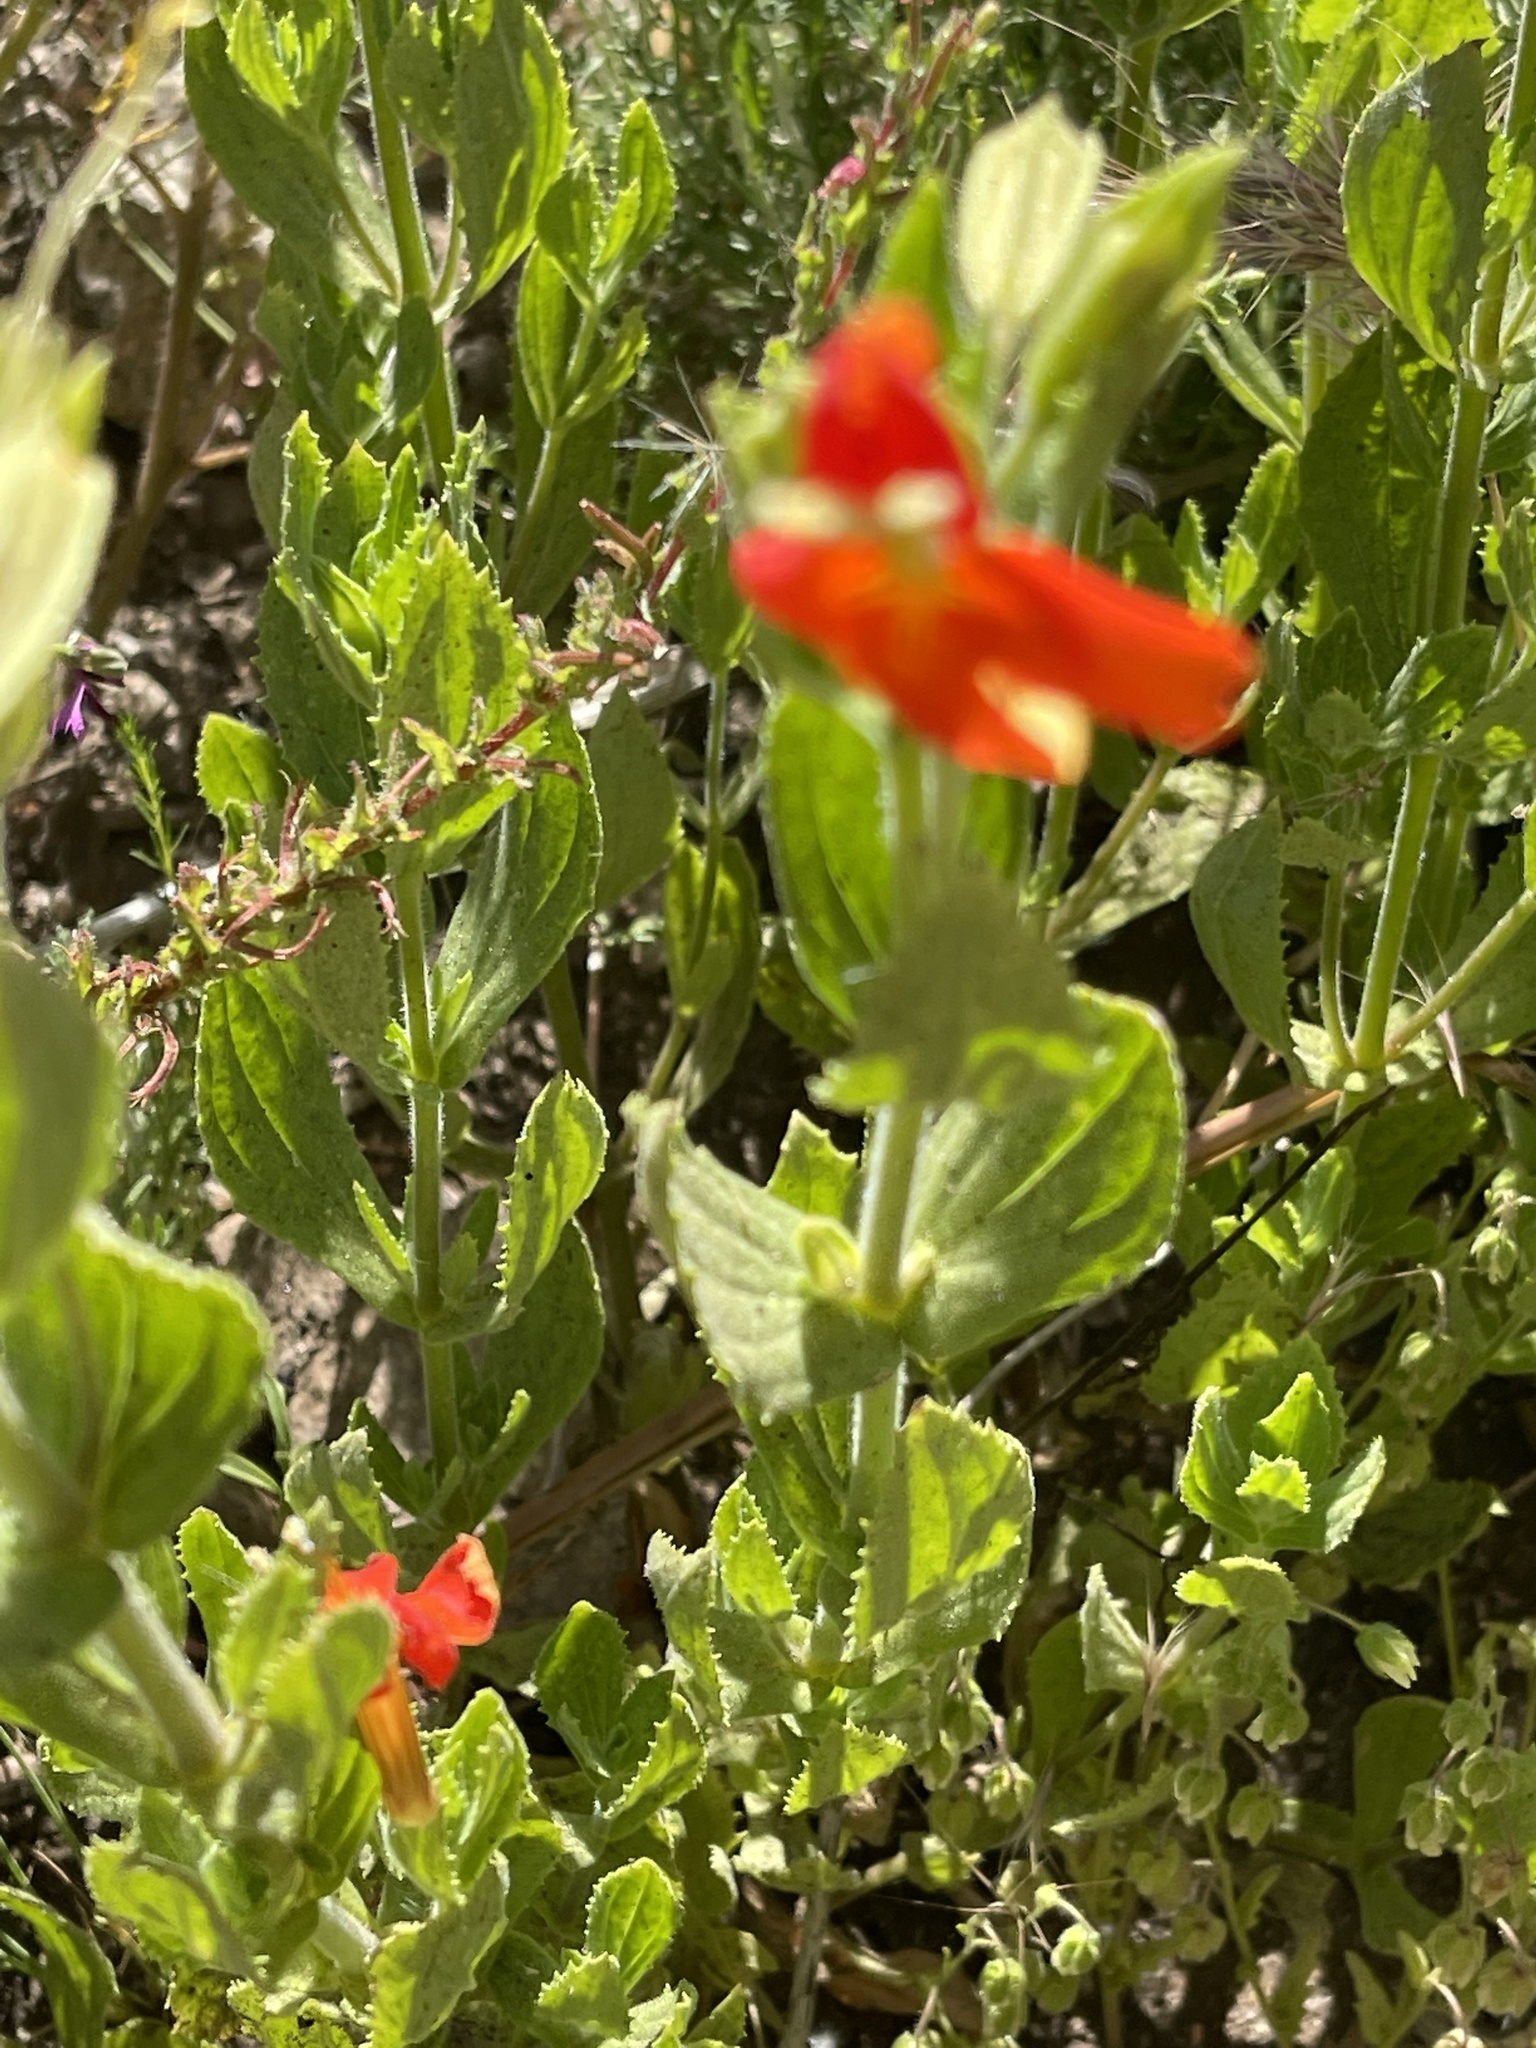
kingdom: Plantae
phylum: Tracheophyta
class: Magnoliopsida
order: Lamiales
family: Phrymaceae
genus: Erythranthe
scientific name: Erythranthe cardinalis
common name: Scarlet monkey-flower
